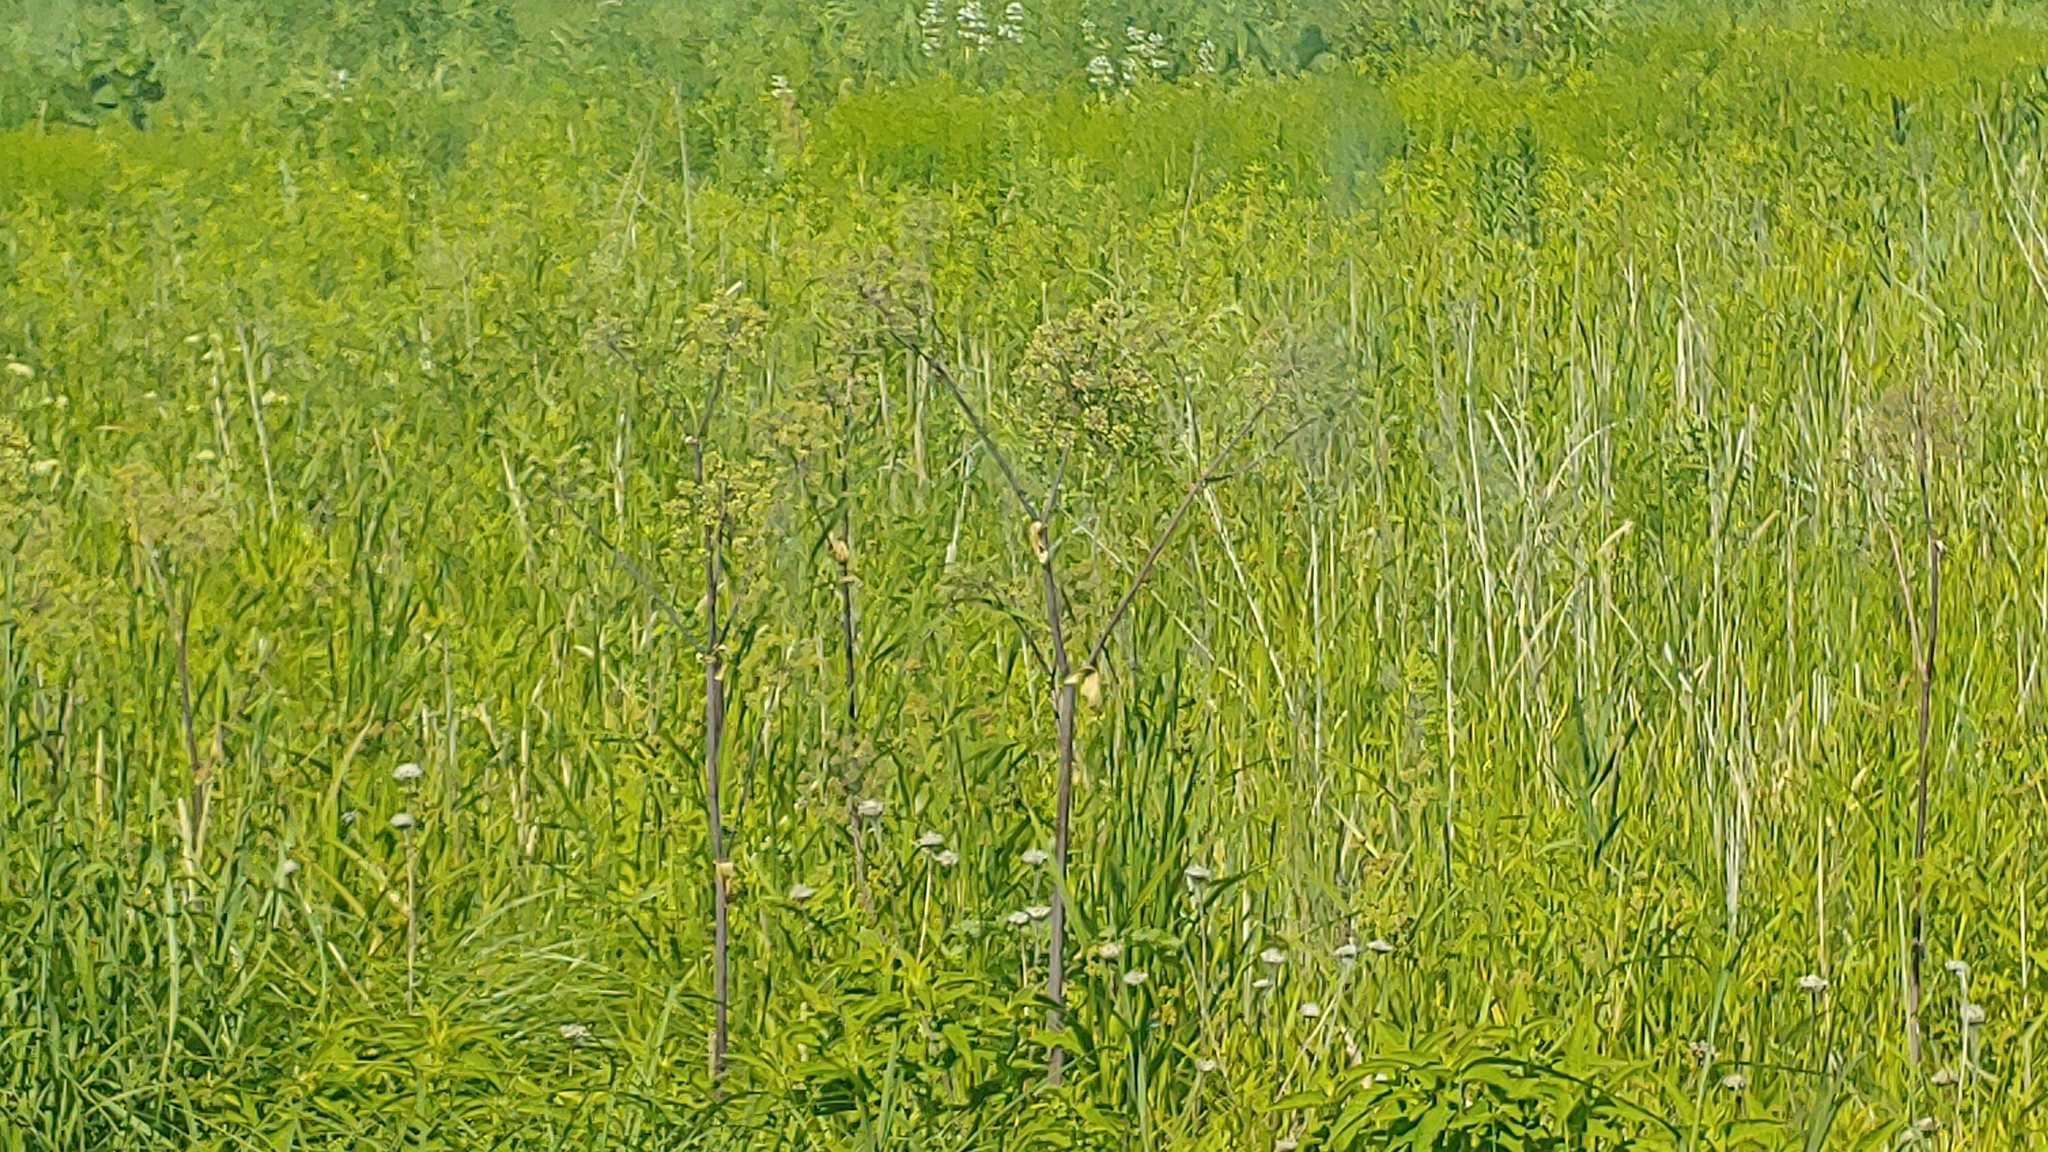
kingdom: Plantae
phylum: Tracheophyta
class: Magnoliopsida
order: Apiales
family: Apiaceae
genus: Angelica
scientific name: Angelica atropurpurea
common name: Great angelica
